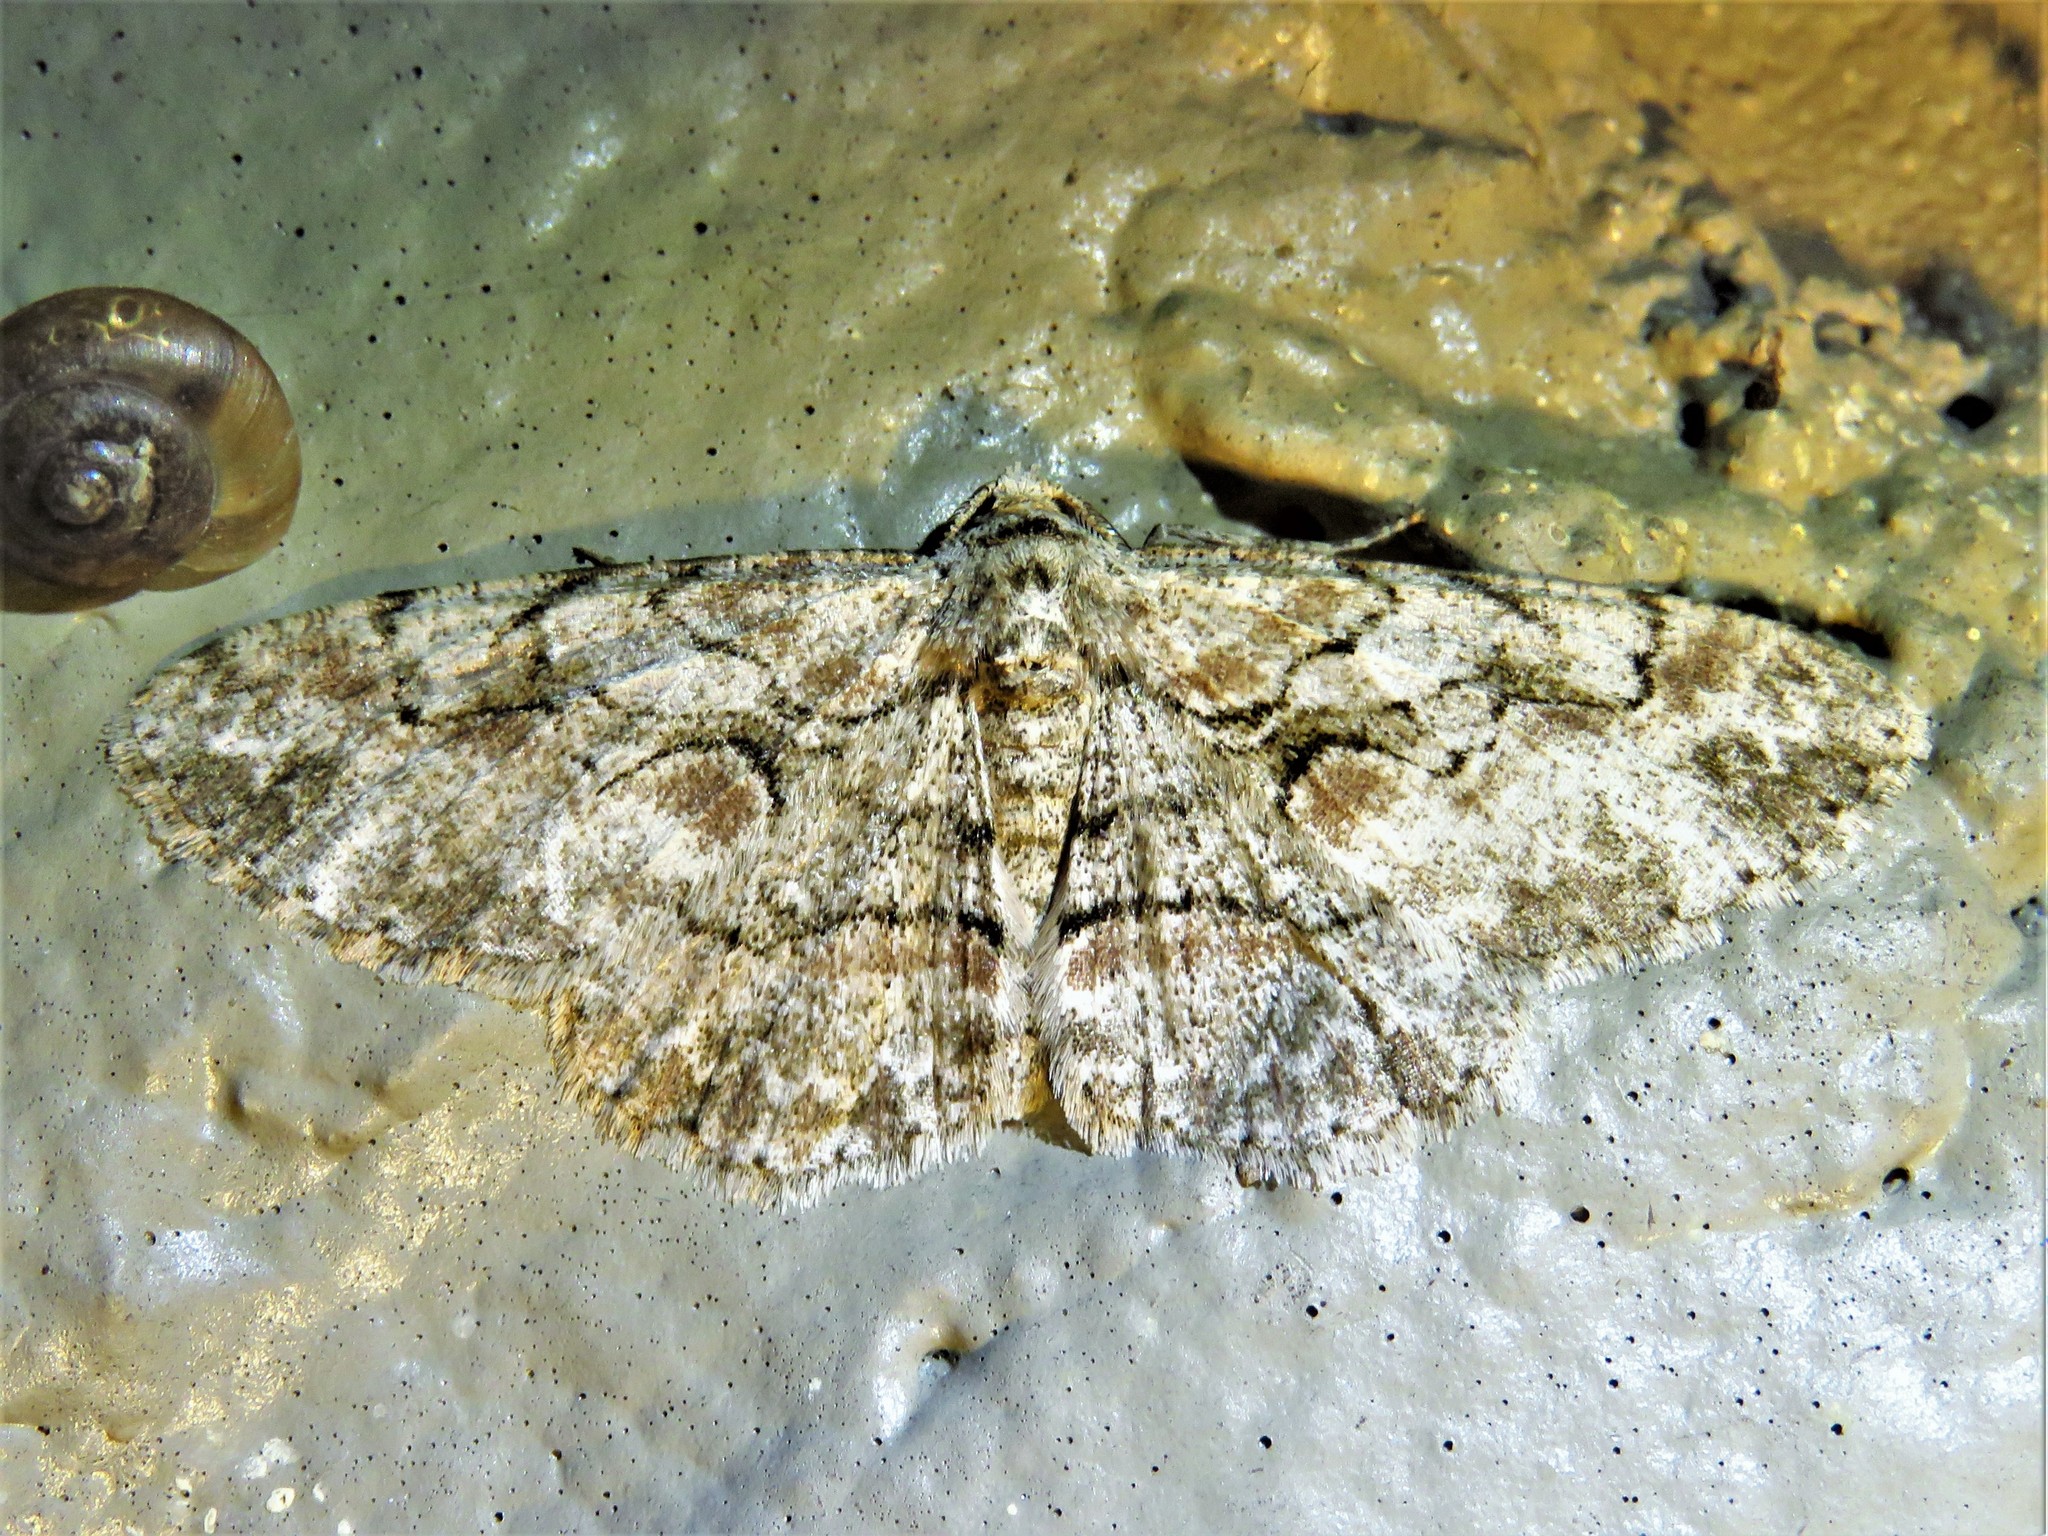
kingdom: Animalia
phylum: Arthropoda
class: Insecta
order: Lepidoptera
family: Geometridae
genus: Iridopsis
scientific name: Iridopsis defectaria
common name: Brown-shaded gray
